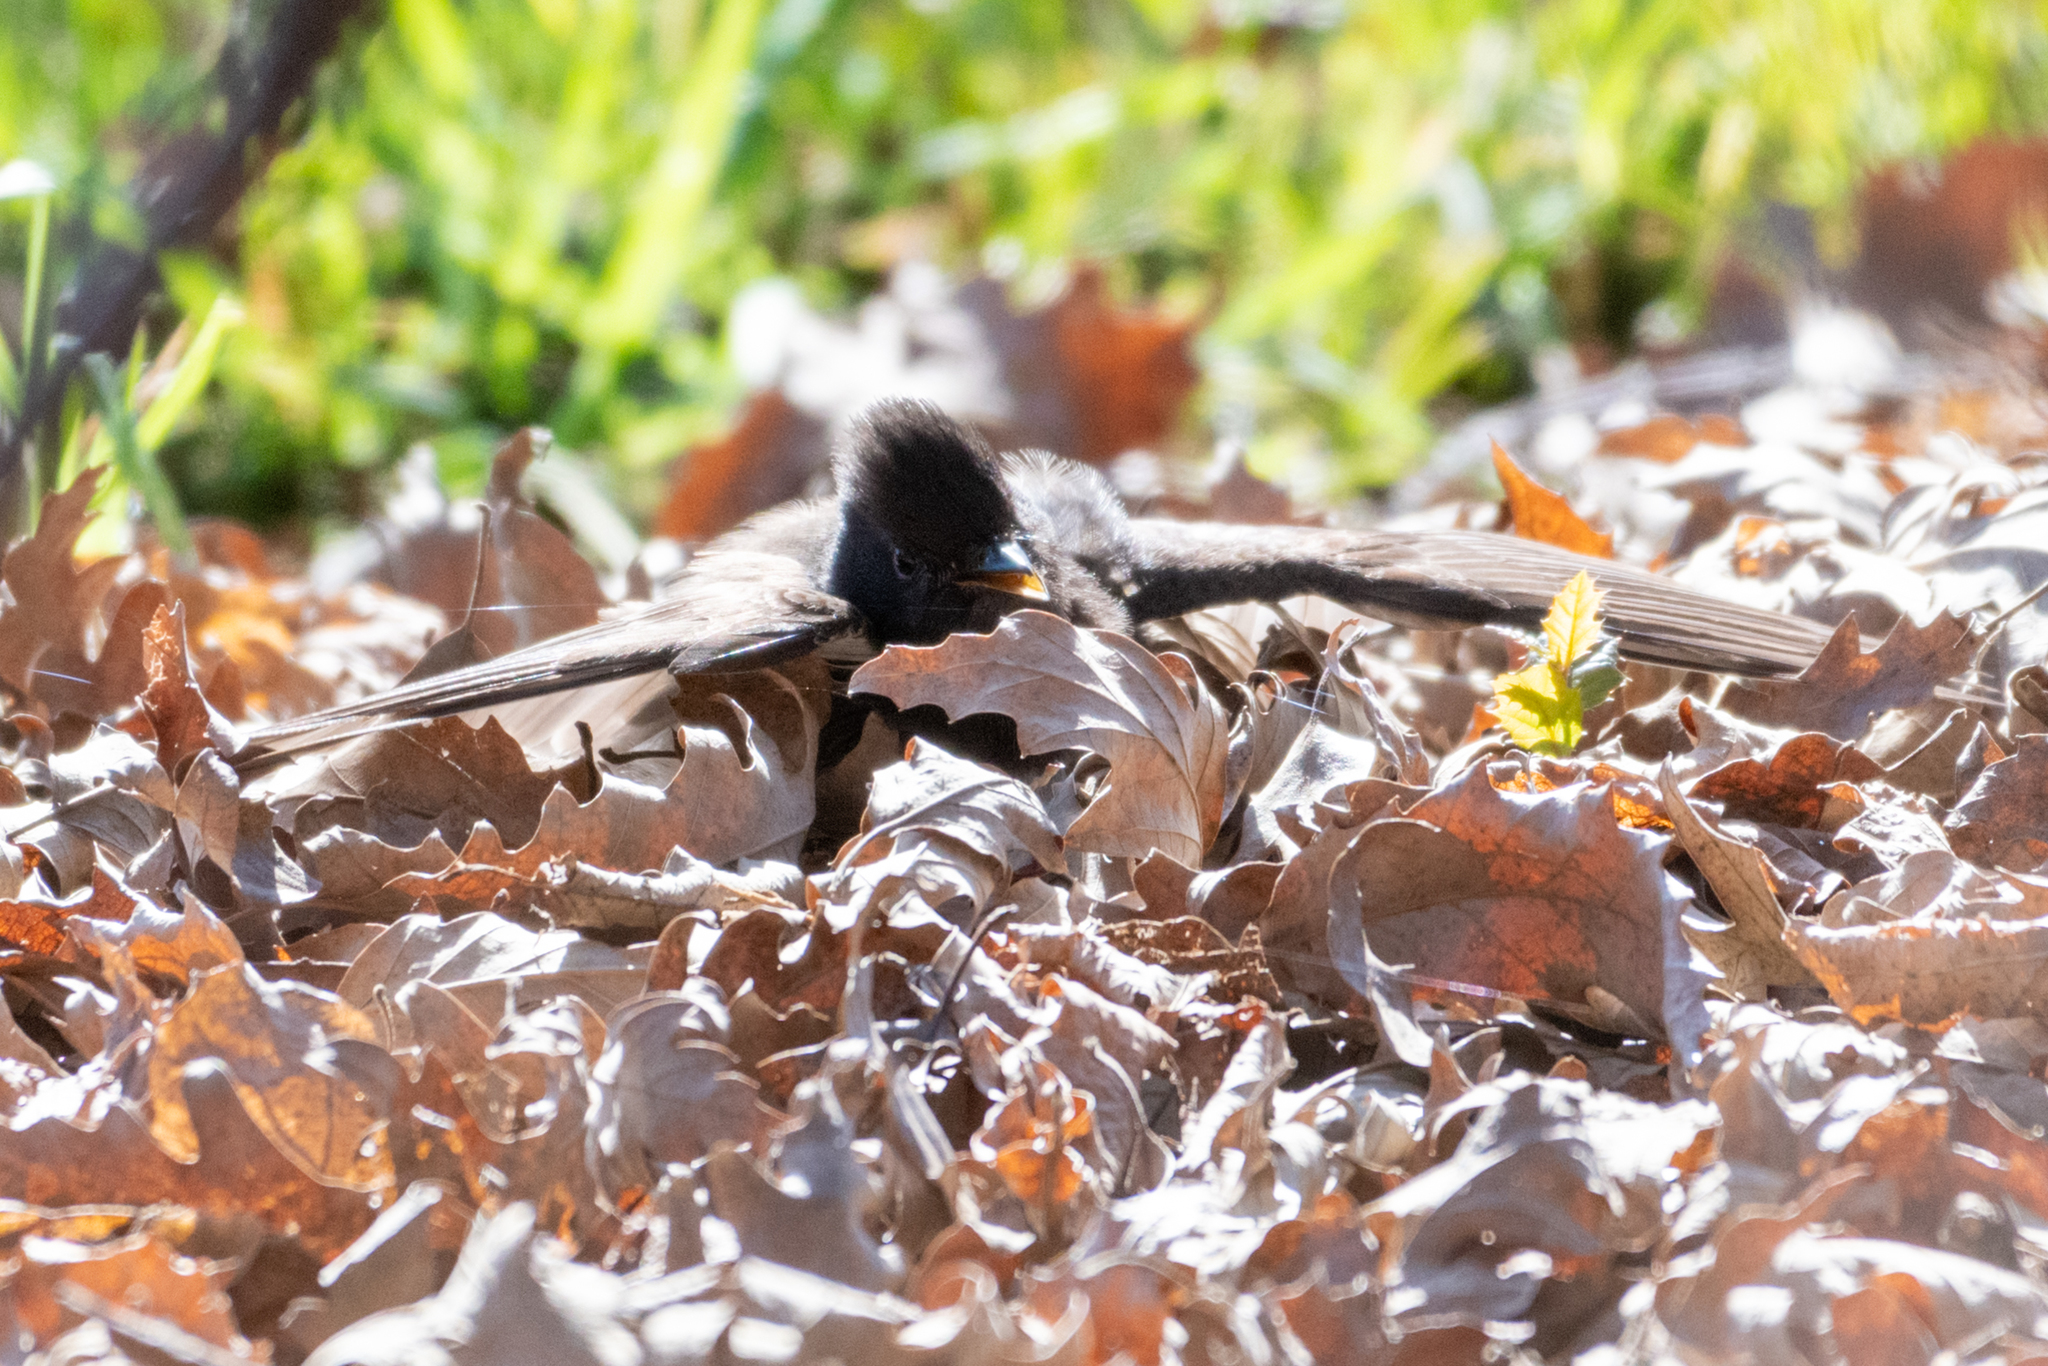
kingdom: Animalia
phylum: Chordata
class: Aves
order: Passeriformes
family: Tyrannidae
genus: Sayornis
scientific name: Sayornis nigricans
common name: Black phoebe
